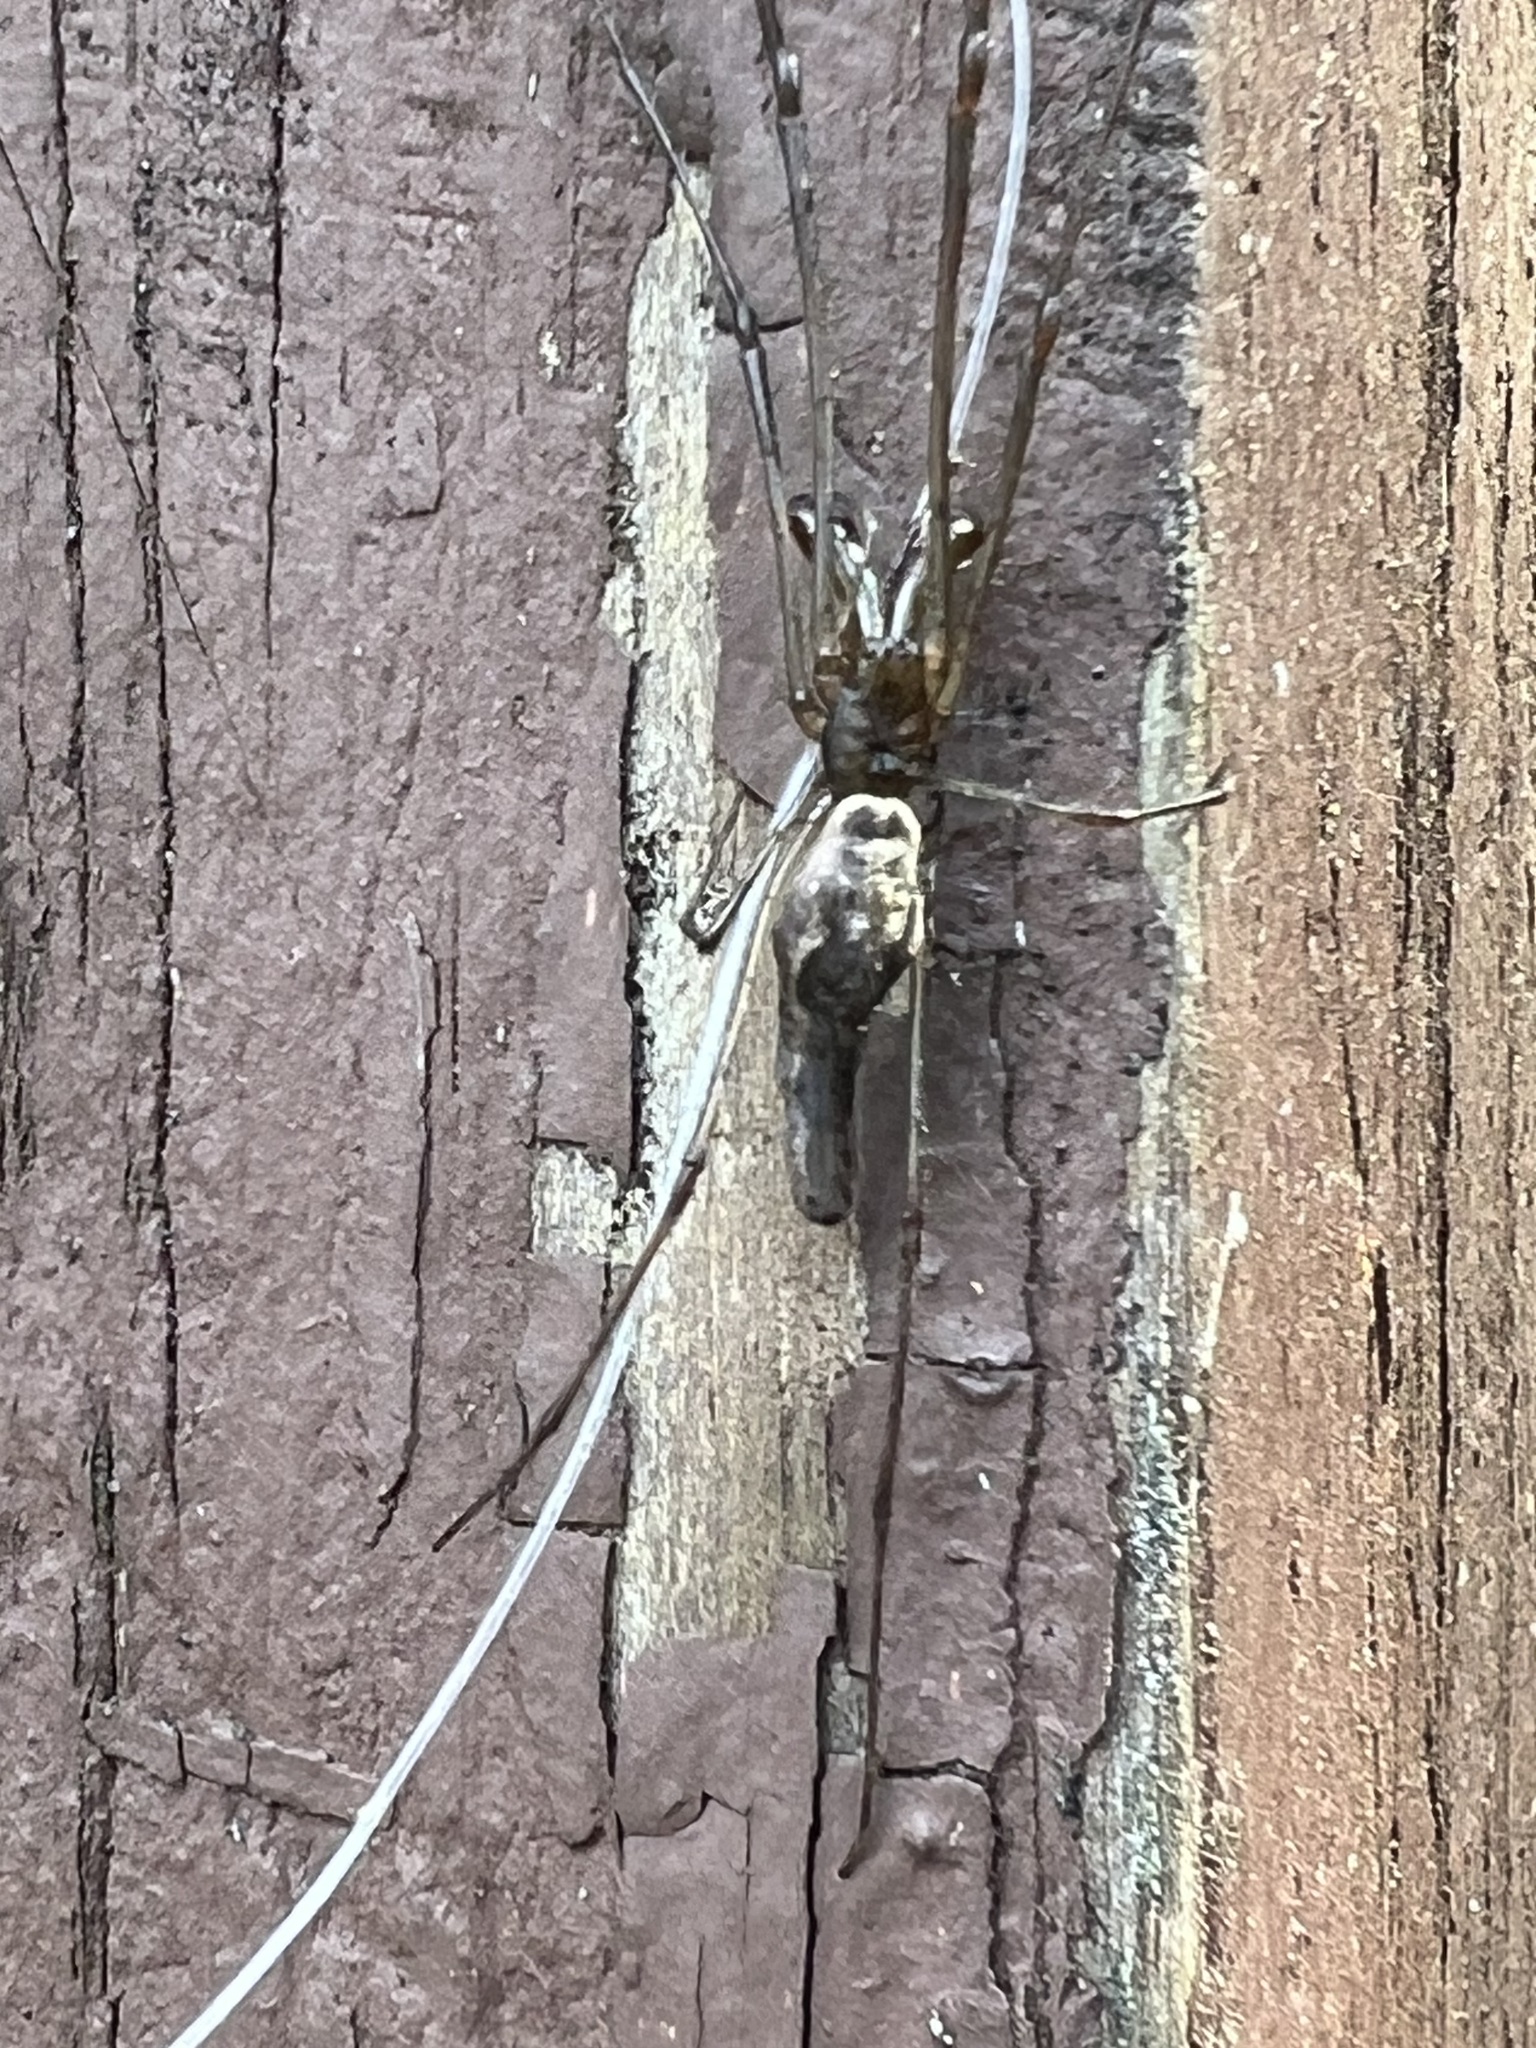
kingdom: Animalia
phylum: Arthropoda
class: Arachnida
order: Araneae
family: Tetragnathidae
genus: Tetragnatha
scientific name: Tetragnatha
